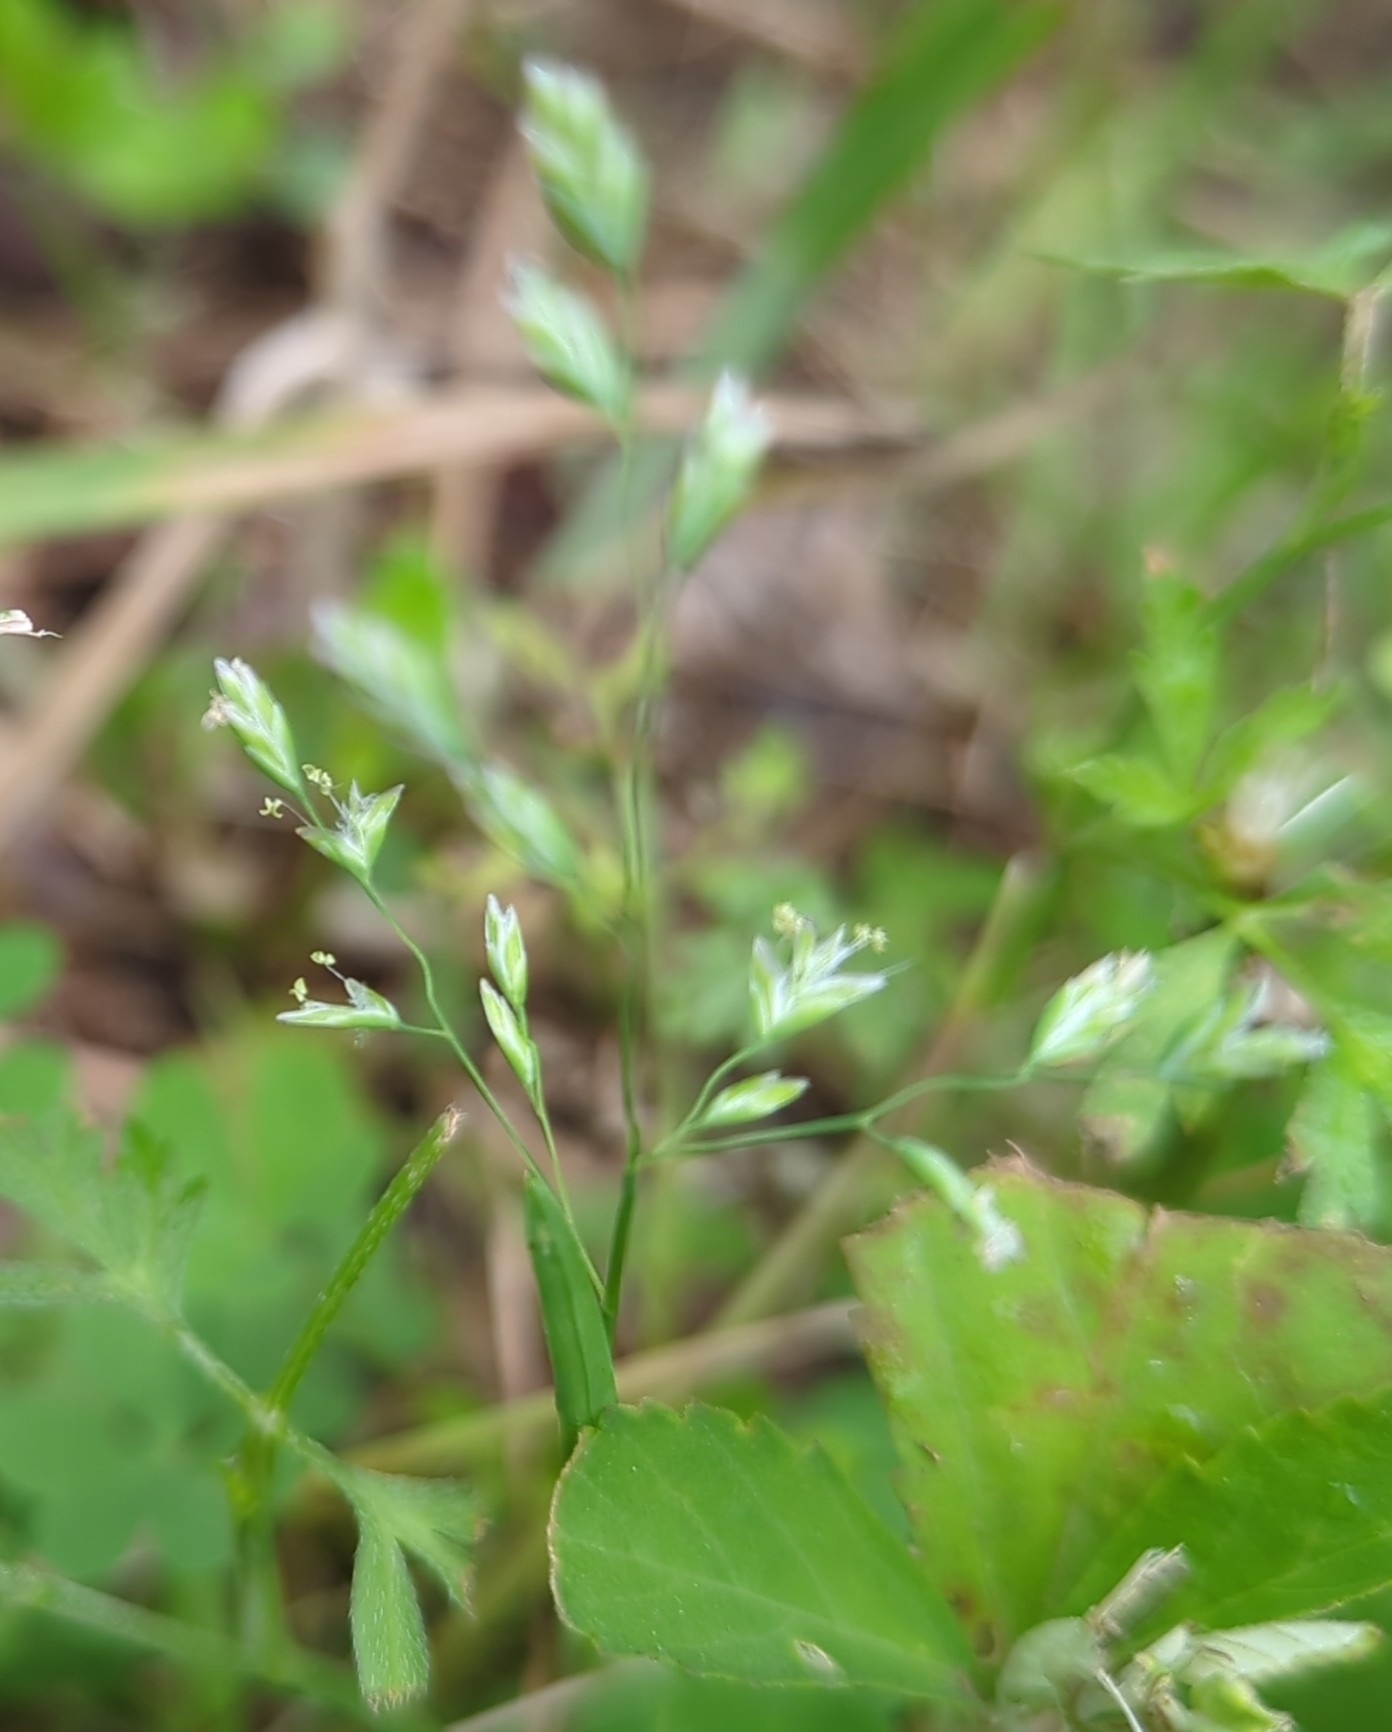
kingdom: Plantae
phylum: Tracheophyta
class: Liliopsida
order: Poales
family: Poaceae
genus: Poa
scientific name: Poa annua
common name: Annual bluegrass
